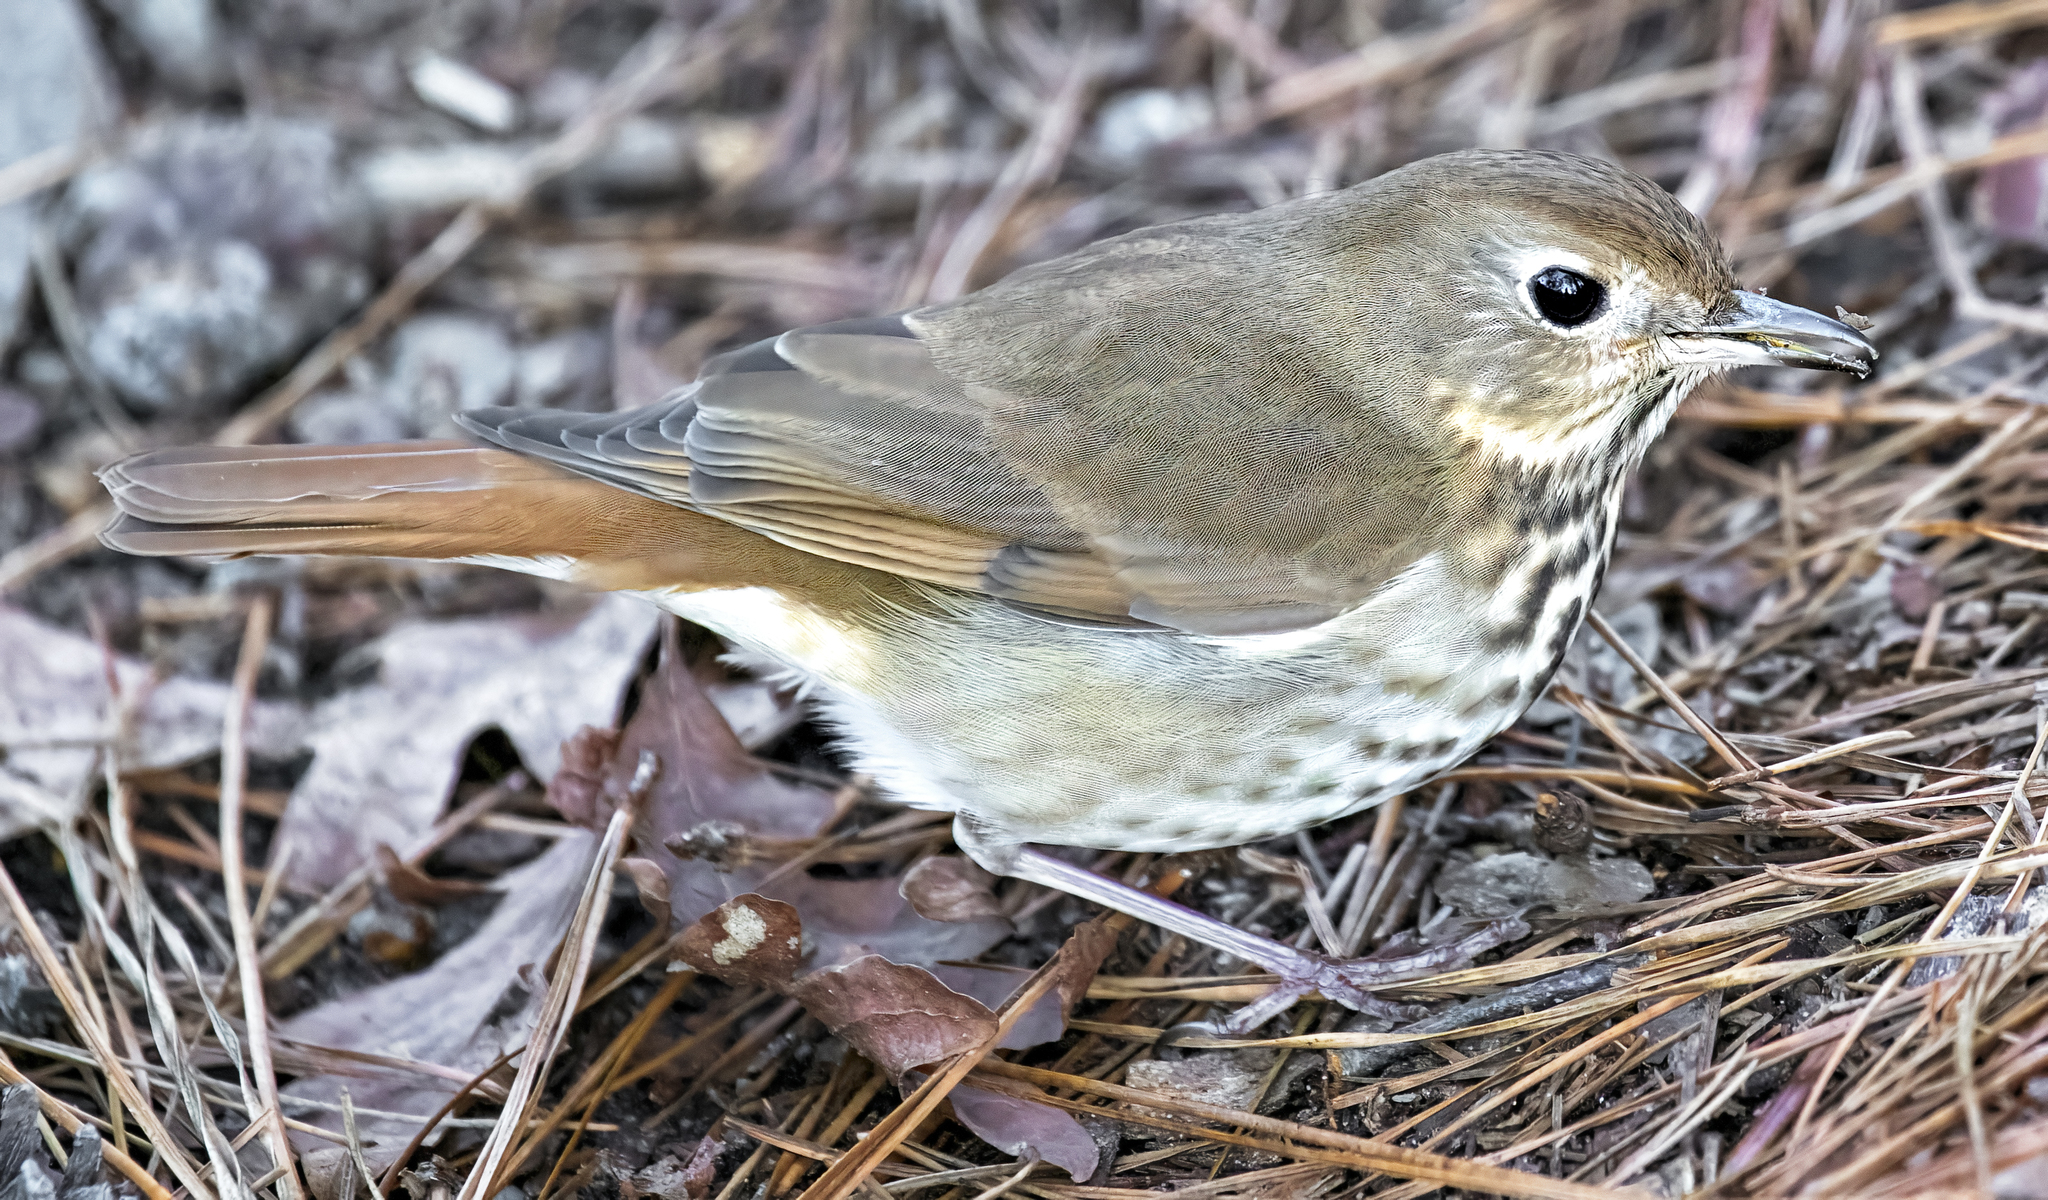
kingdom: Animalia
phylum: Chordata
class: Aves
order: Passeriformes
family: Turdidae
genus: Catharus
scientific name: Catharus guttatus
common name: Hermit thrush
